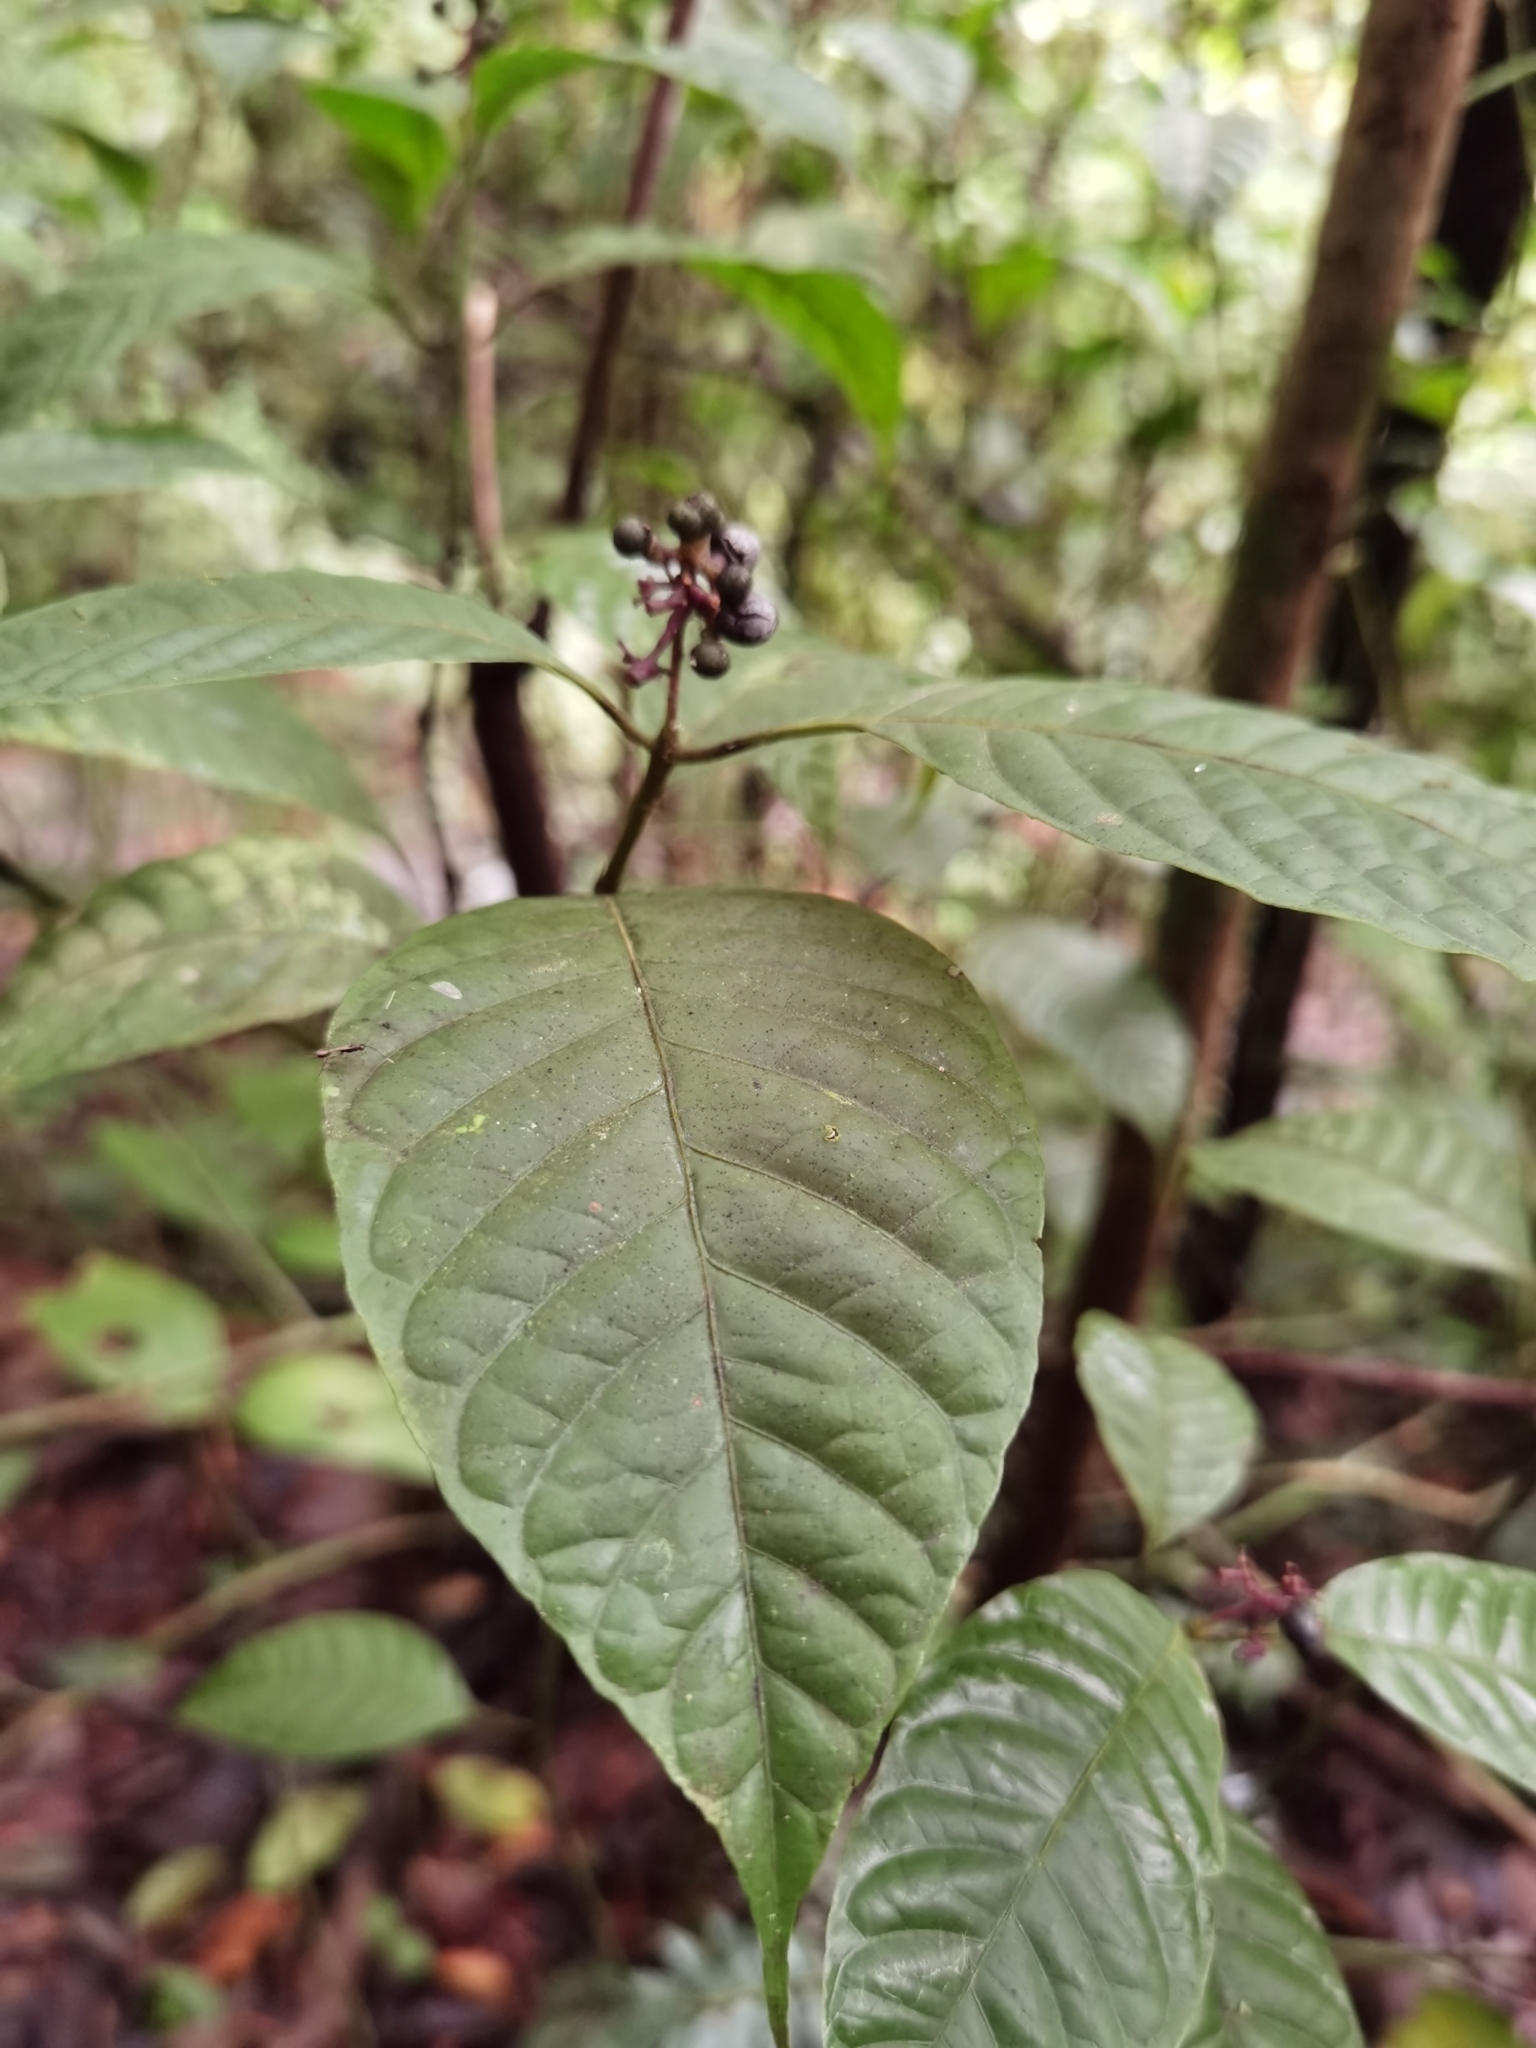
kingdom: Plantae
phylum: Tracheophyta
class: Magnoliopsida
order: Gentianales
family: Rubiaceae
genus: Palicourea
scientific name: Palicourea acuminata
